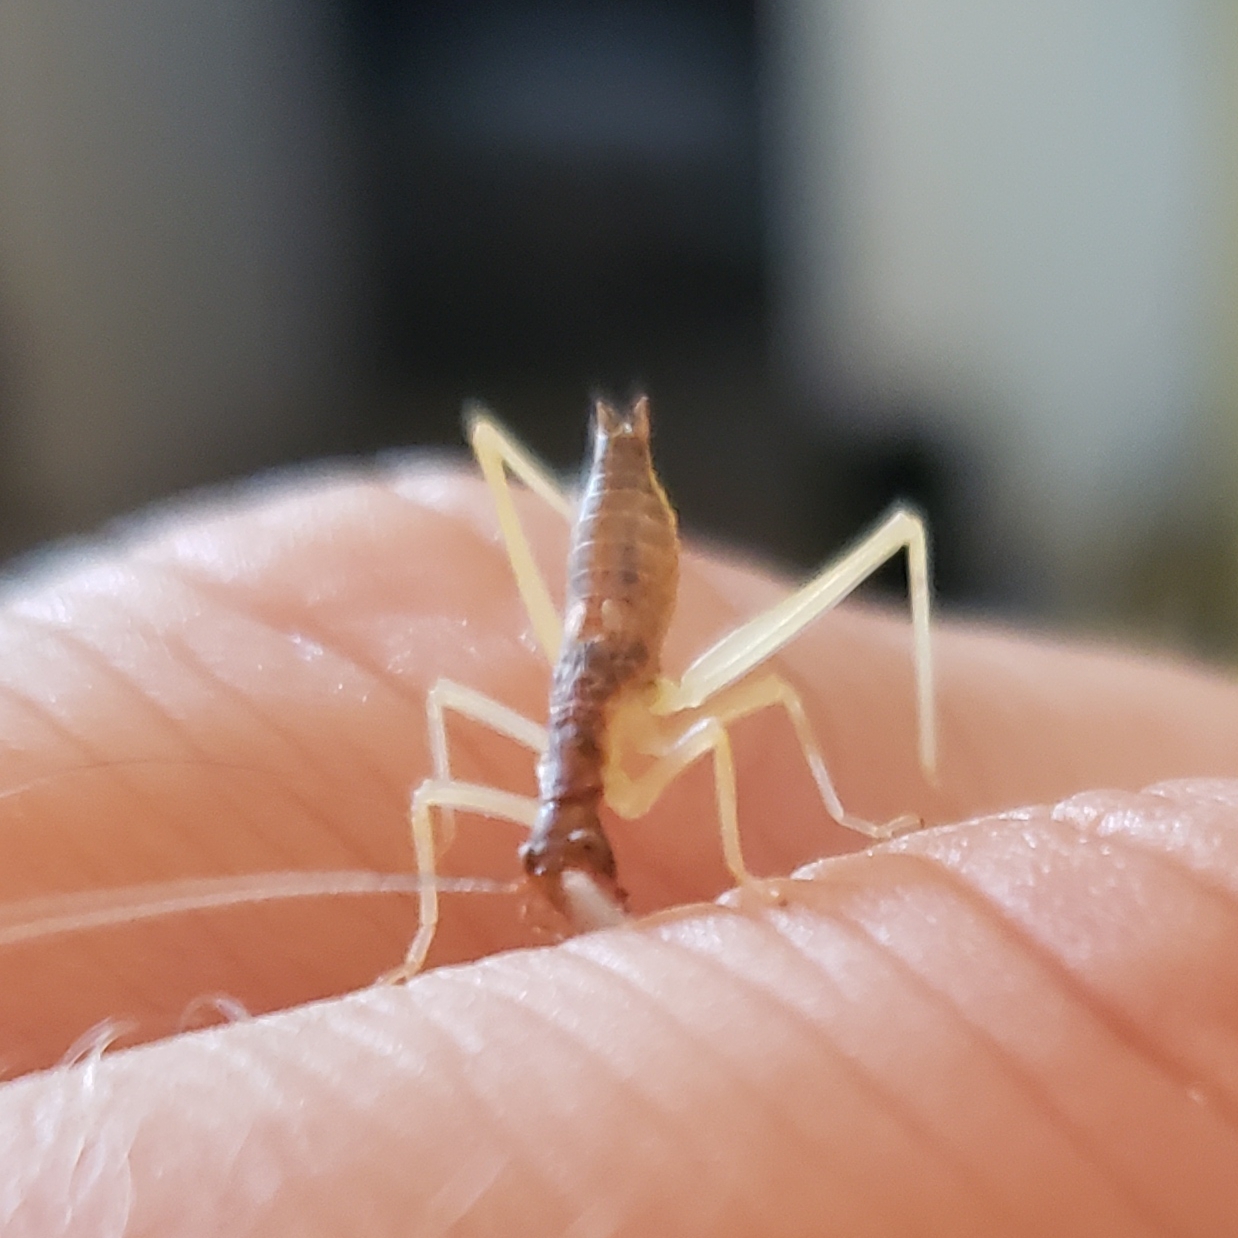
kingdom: Animalia
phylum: Arthropoda
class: Insecta
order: Orthoptera
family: Gryllidae
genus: Neoxabea
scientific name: Neoxabea bipunctata
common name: Two-spotted tree cricket
